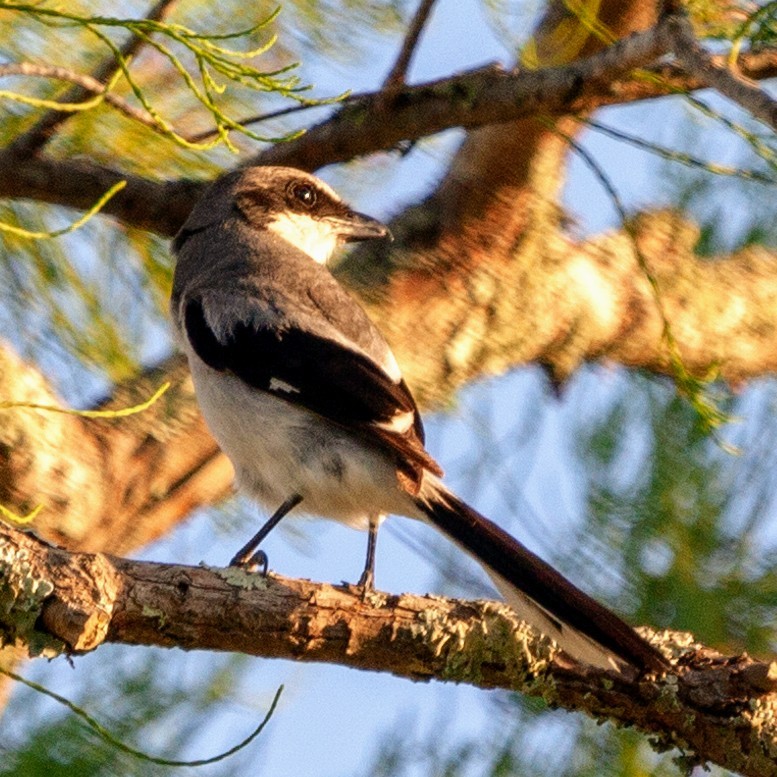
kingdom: Animalia
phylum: Chordata
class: Aves
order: Passeriformes
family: Laniidae
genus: Lanius
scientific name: Lanius ludovicianus
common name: Loggerhead shrike
